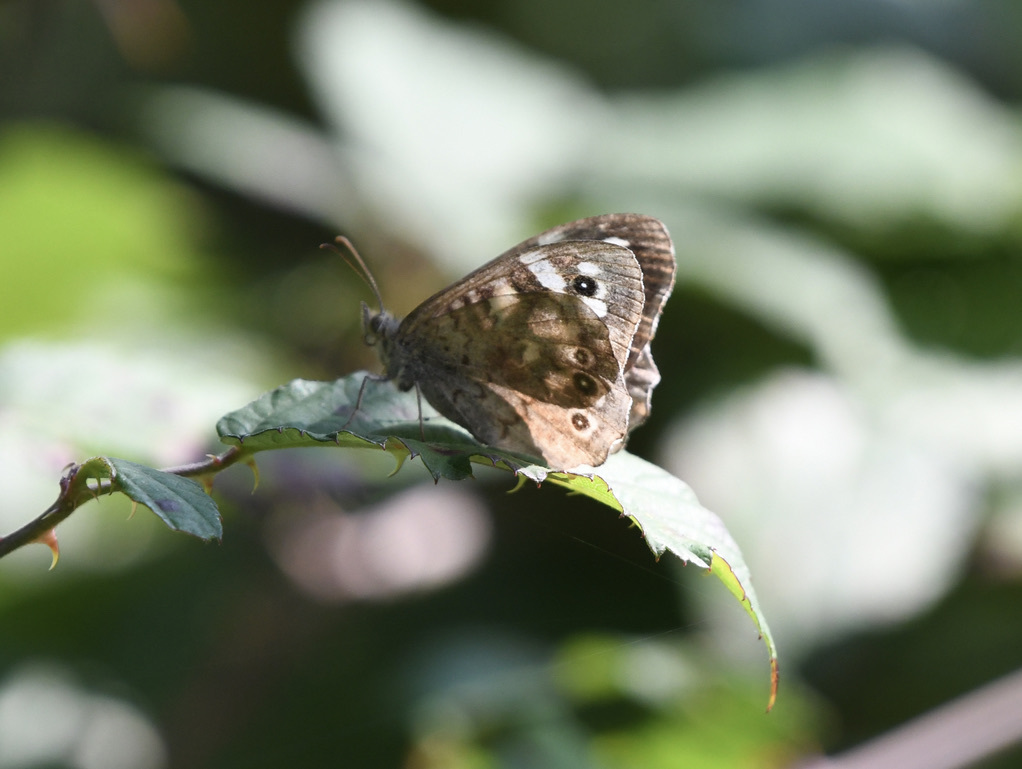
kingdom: Animalia
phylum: Arthropoda
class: Insecta
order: Lepidoptera
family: Nymphalidae
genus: Pararge
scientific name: Pararge aegeria
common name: Speckled wood
